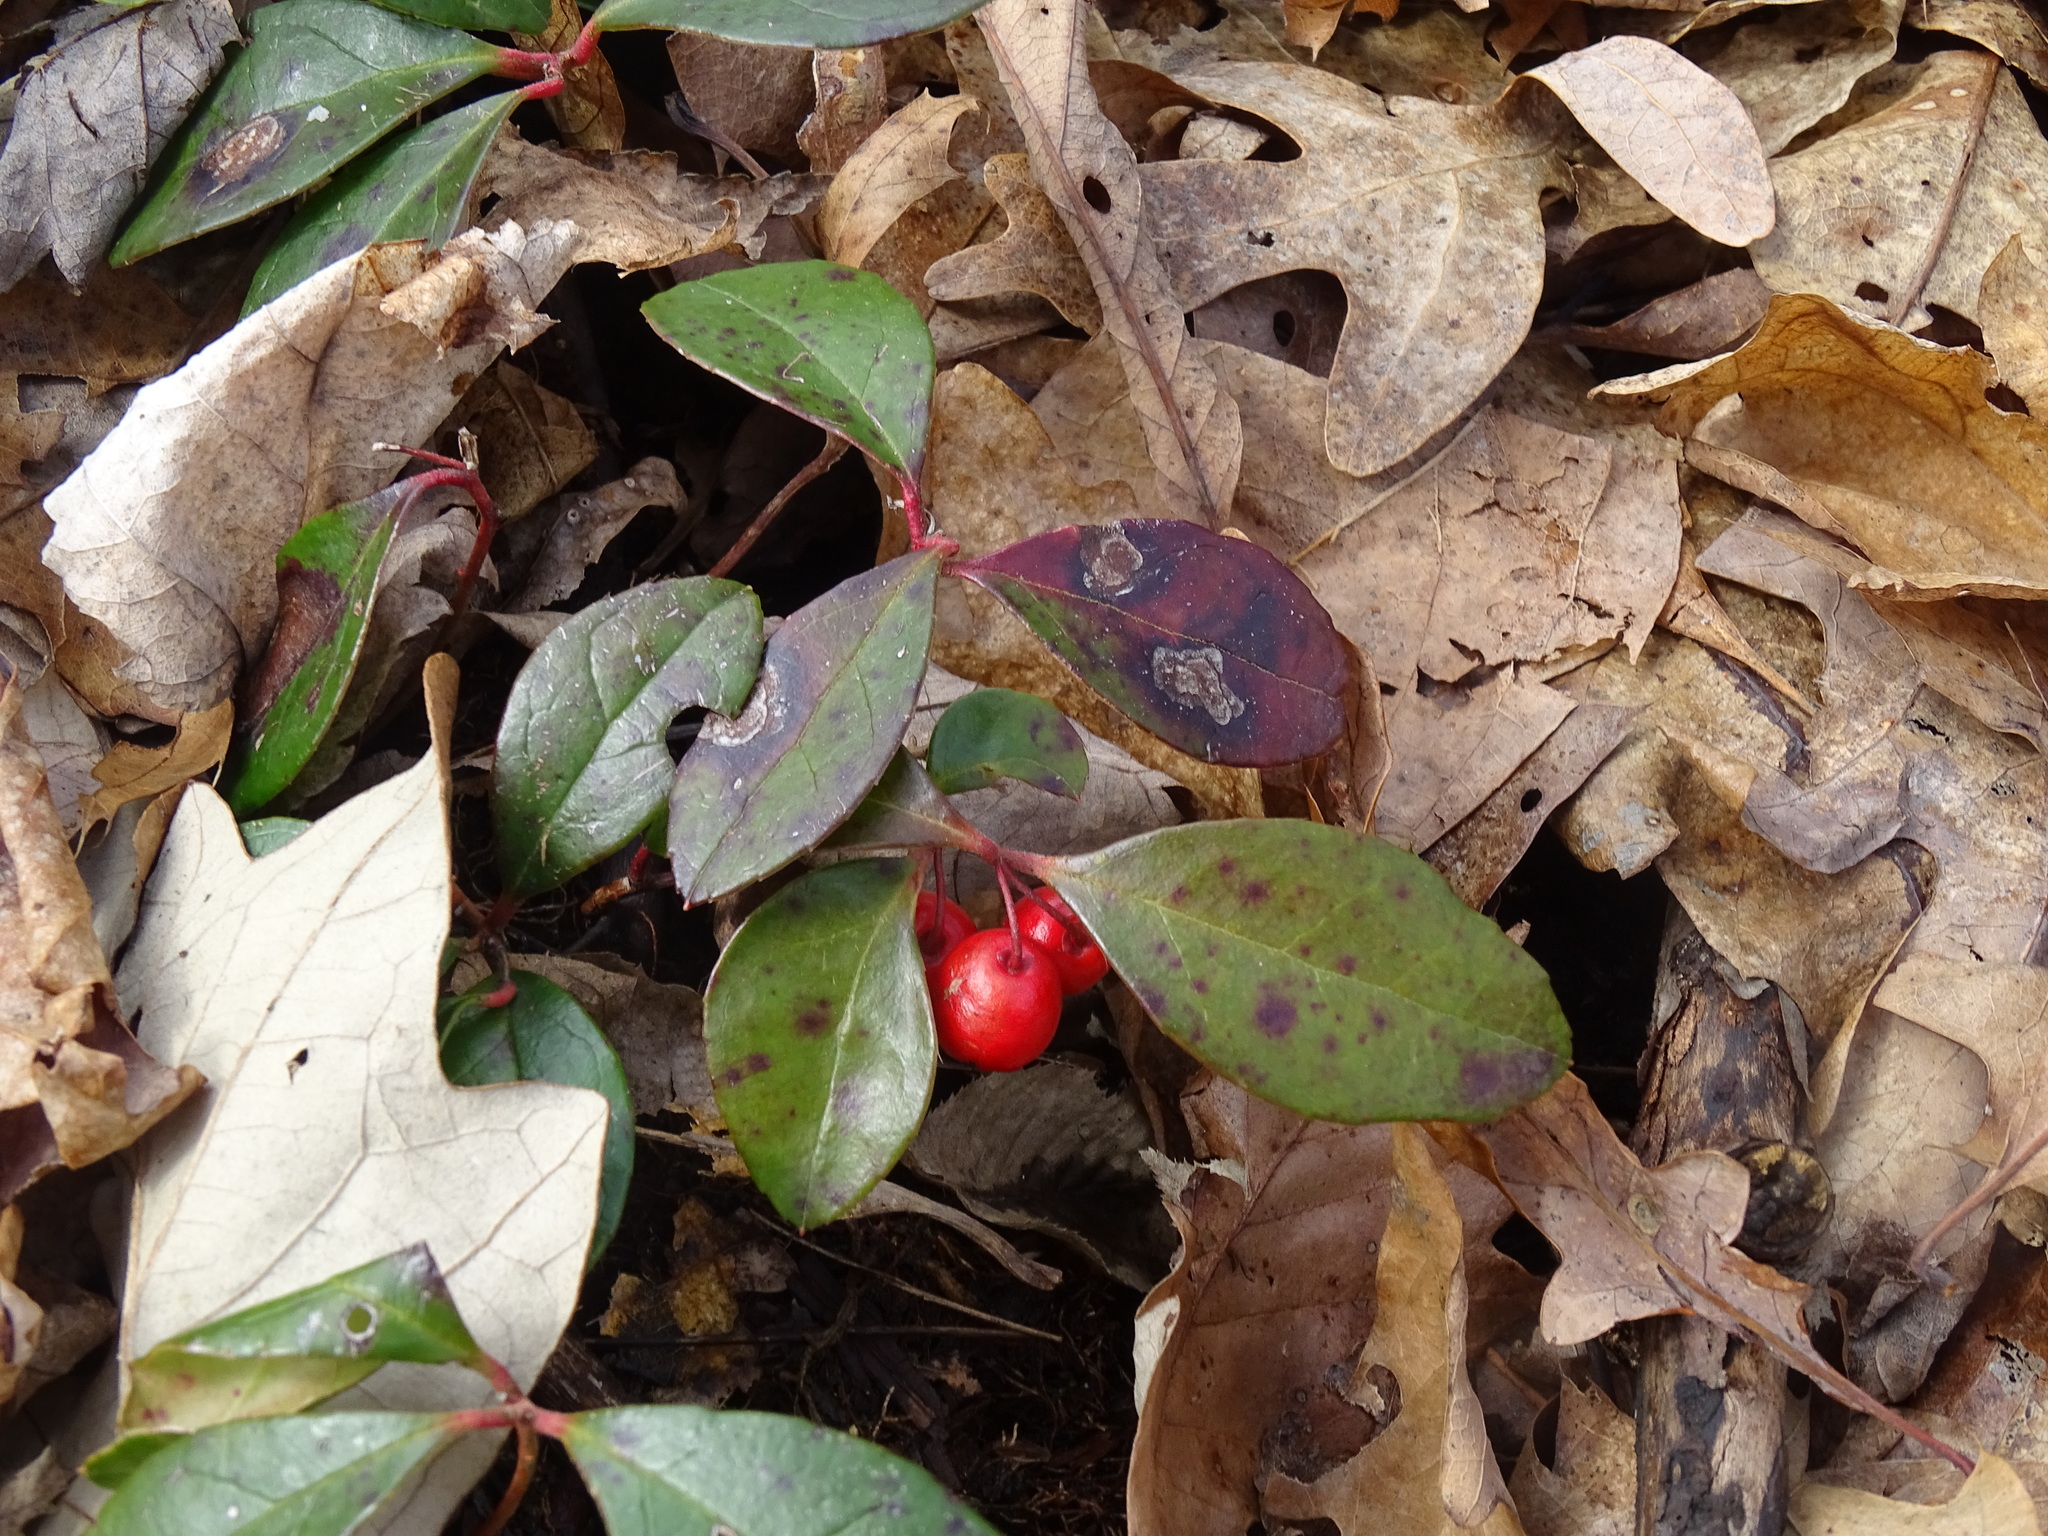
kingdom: Plantae
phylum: Tracheophyta
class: Magnoliopsida
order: Ericales
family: Ericaceae
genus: Gaultheria
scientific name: Gaultheria procumbens
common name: Checkerberry
